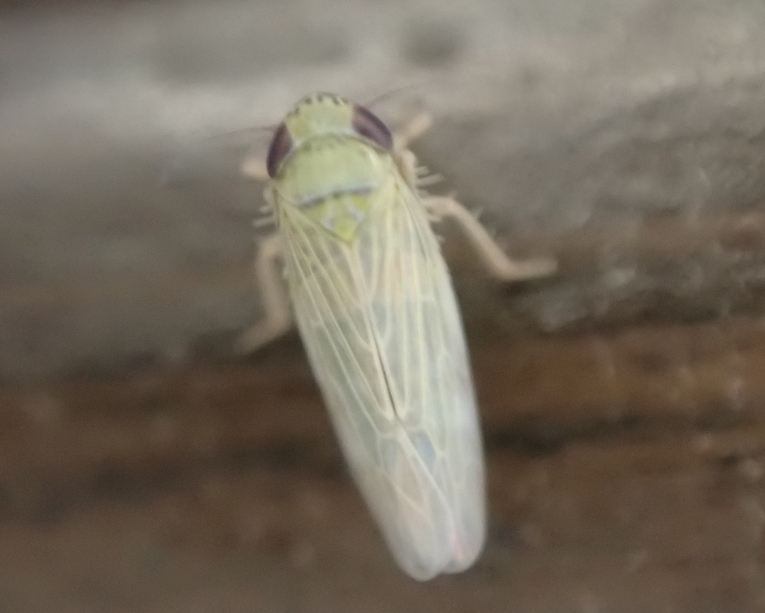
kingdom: Animalia
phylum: Arthropoda
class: Insecta
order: Hemiptera
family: Cicadellidae
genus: Graminella
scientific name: Graminella nigrifrons
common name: Blackfaced leafhopper
